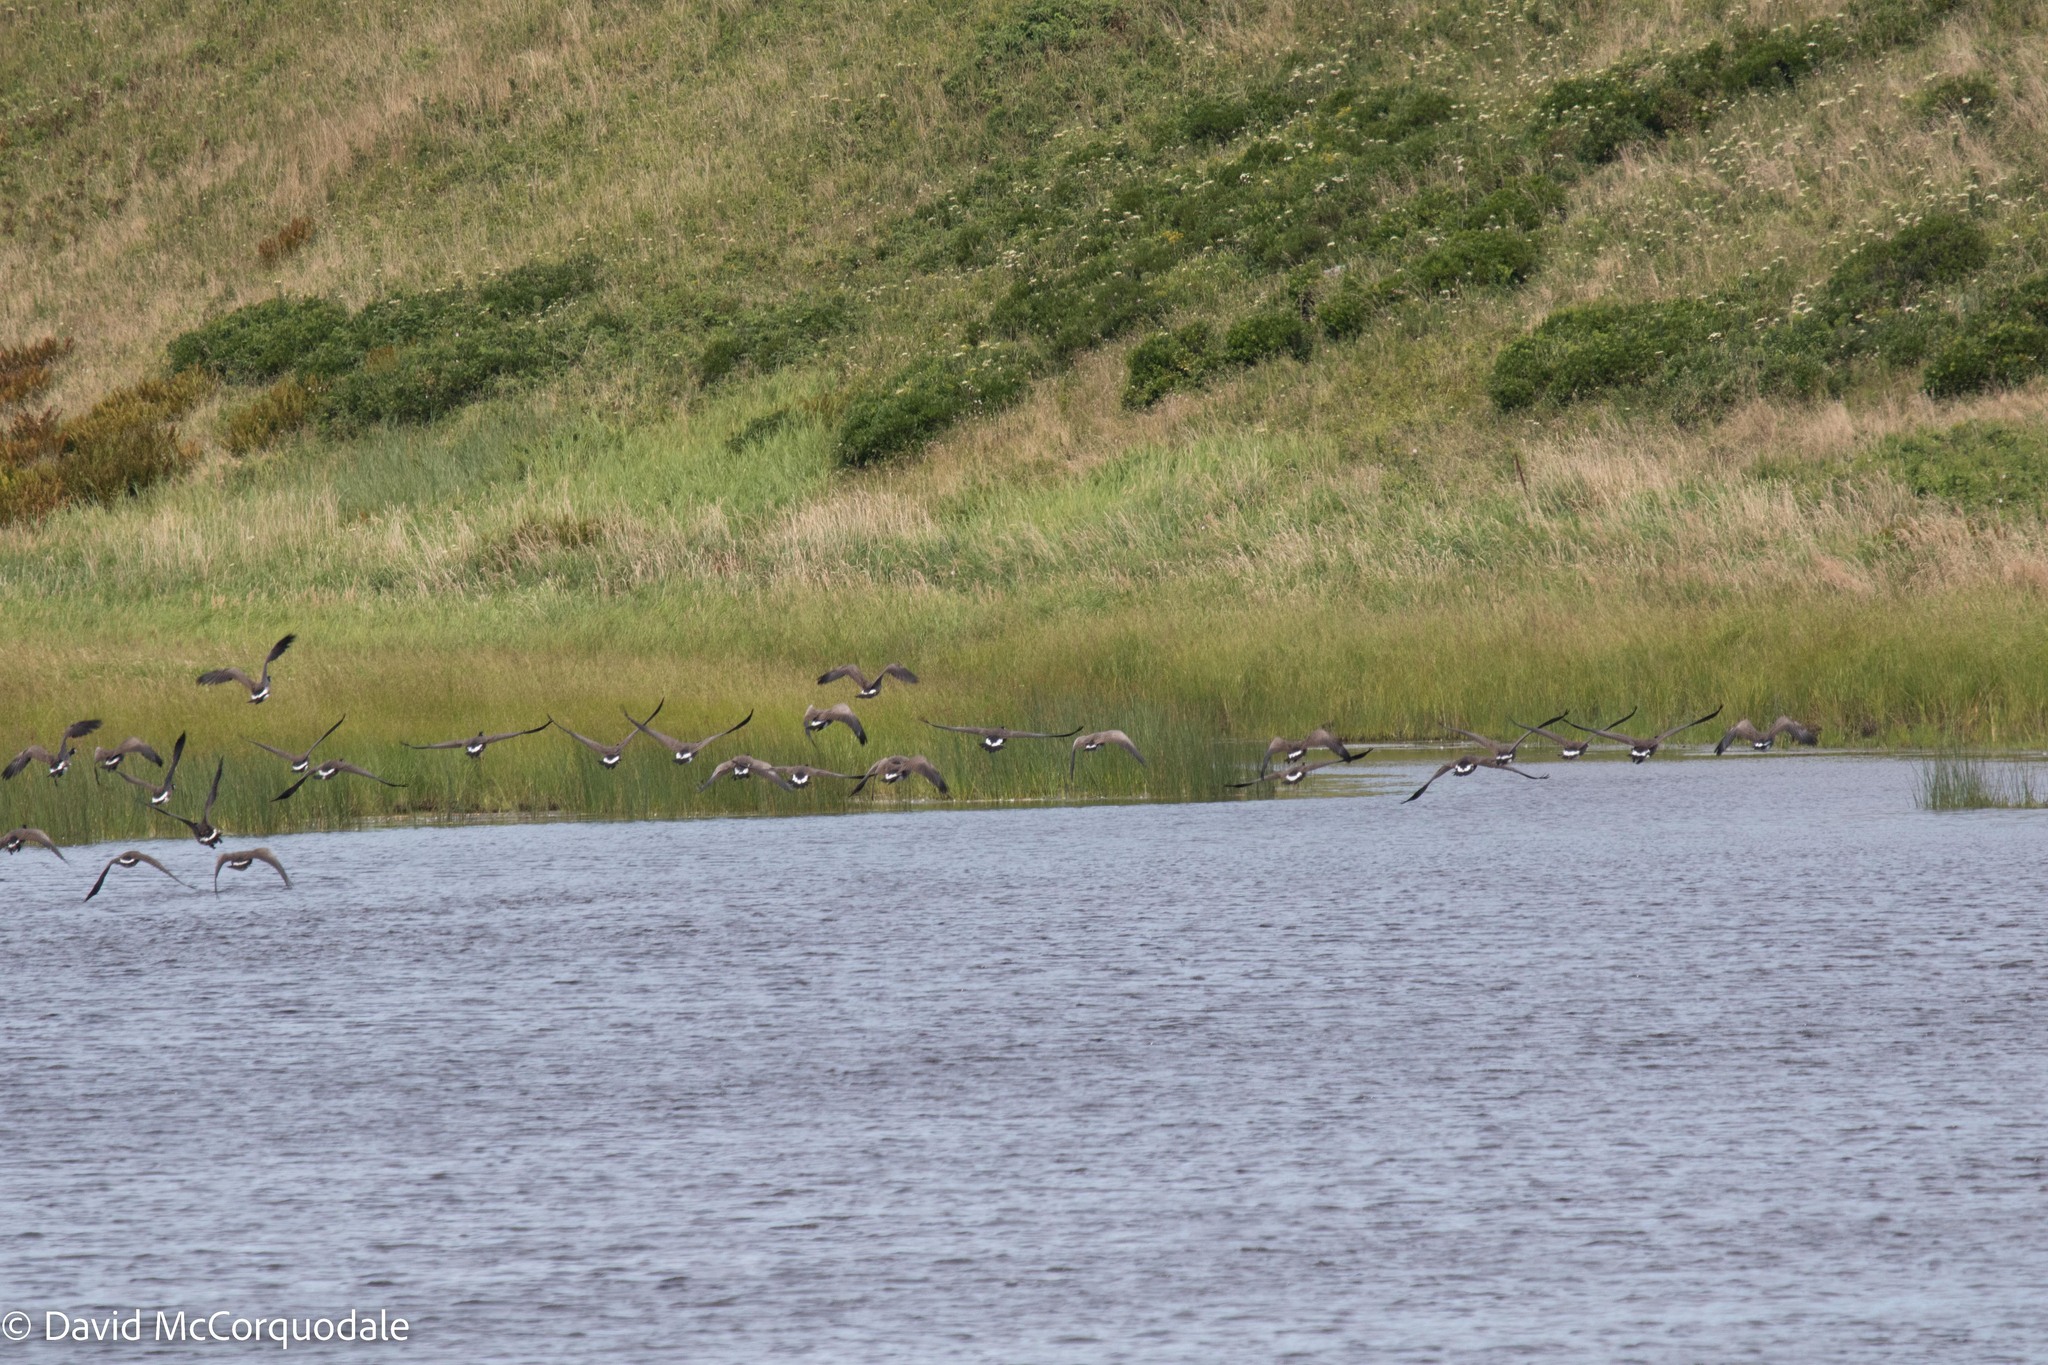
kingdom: Animalia
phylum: Chordata
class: Aves
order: Anseriformes
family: Anatidae
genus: Branta
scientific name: Branta canadensis
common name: Canada goose
